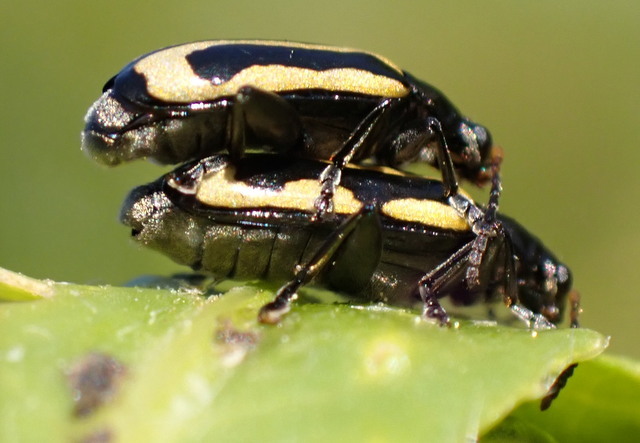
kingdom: Animalia
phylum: Arthropoda
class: Insecta
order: Coleoptera
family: Chrysomelidae
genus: Agasicles
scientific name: Agasicles hygrophila
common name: Alligatorweed flea beetle
